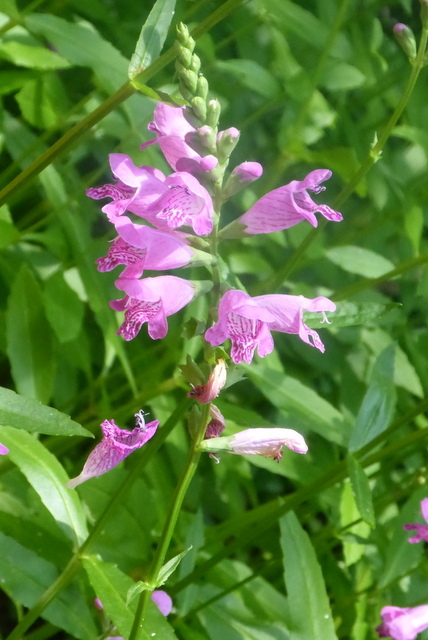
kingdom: Plantae
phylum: Tracheophyta
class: Magnoliopsida
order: Lamiales
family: Lamiaceae
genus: Physostegia
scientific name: Physostegia leptophylla
